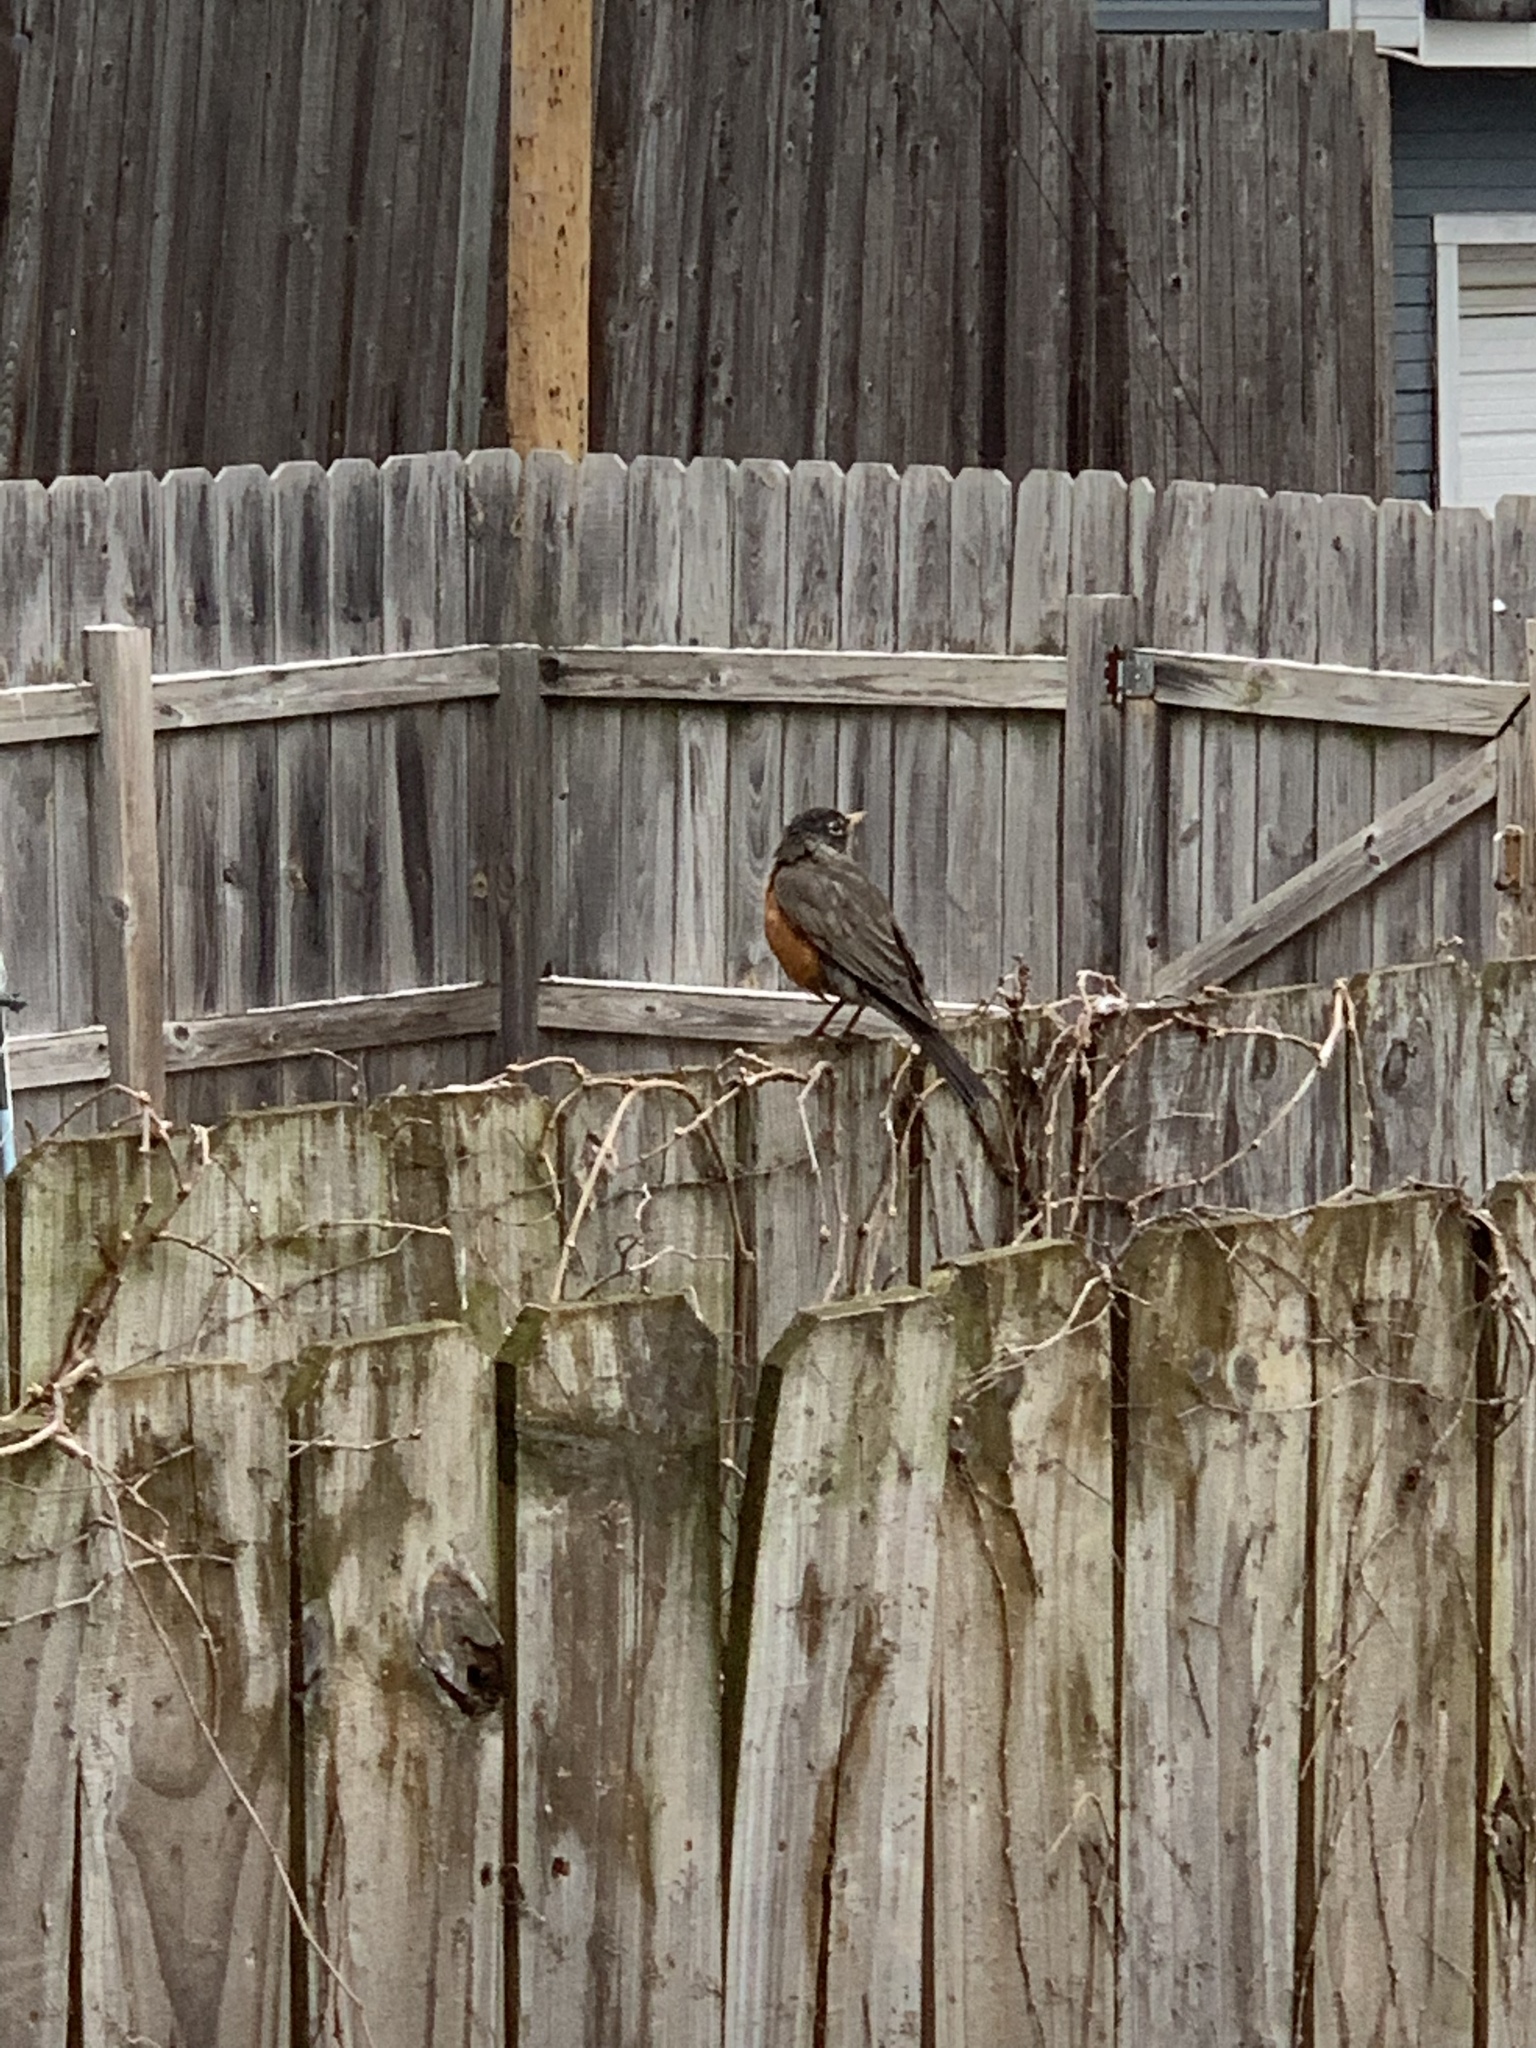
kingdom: Animalia
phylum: Chordata
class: Aves
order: Passeriformes
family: Turdidae
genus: Turdus
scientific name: Turdus migratorius
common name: American robin
